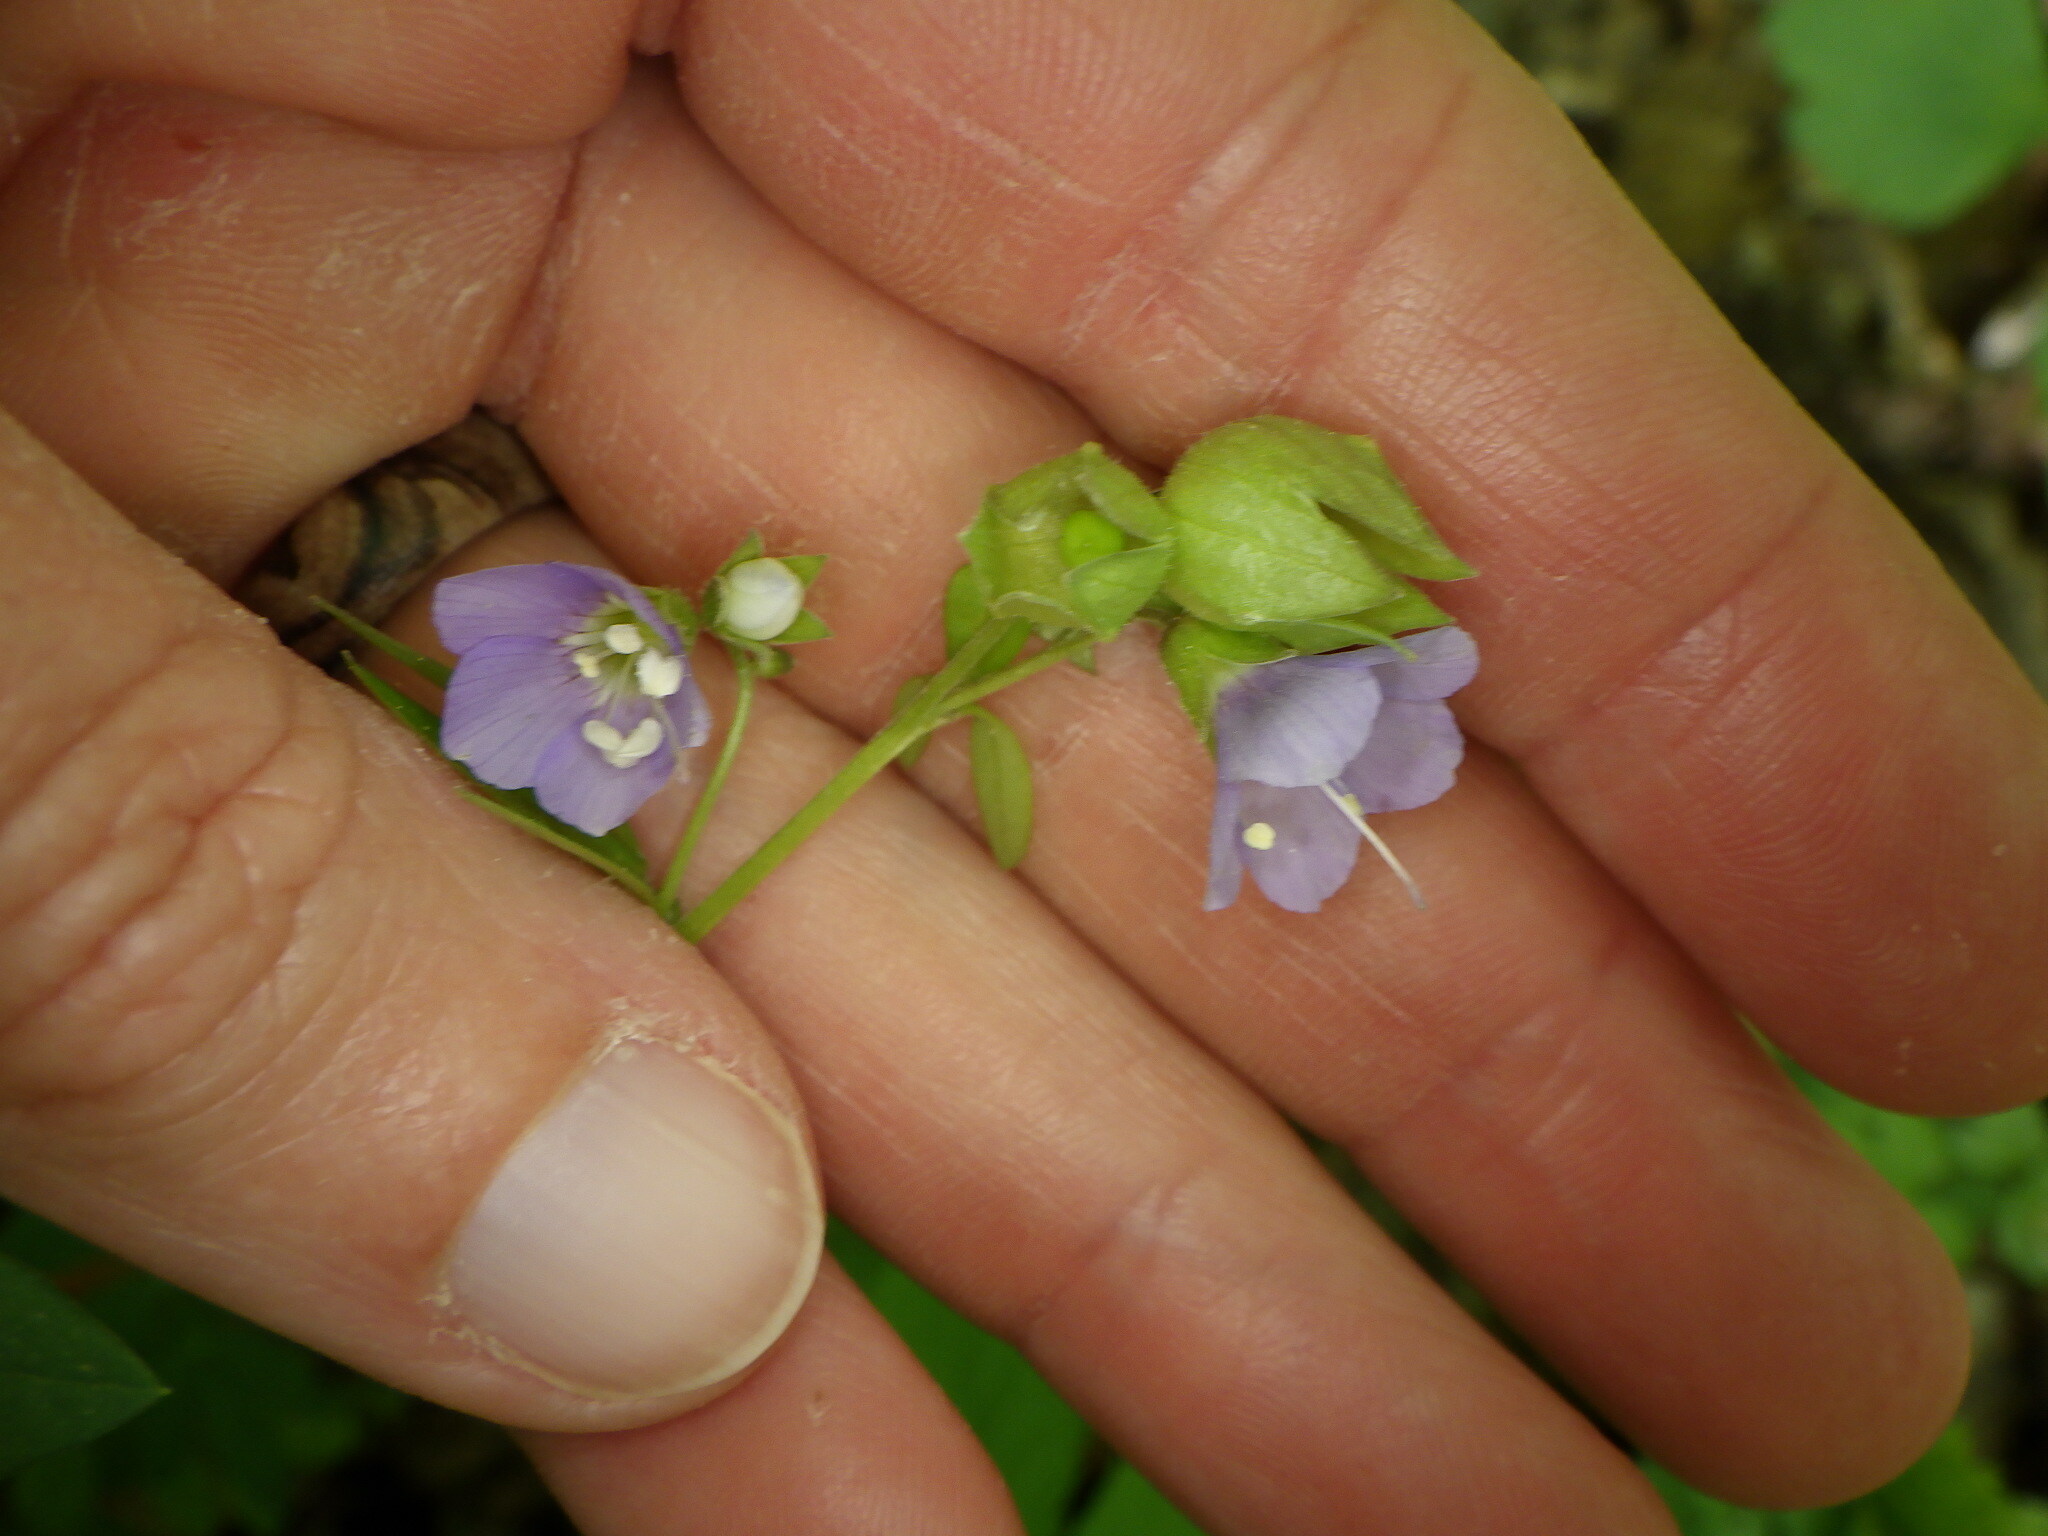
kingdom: Plantae
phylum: Tracheophyta
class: Magnoliopsida
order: Ericales
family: Polemoniaceae
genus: Polemonium
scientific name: Polemonium reptans
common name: Creeping jacob's-ladder
